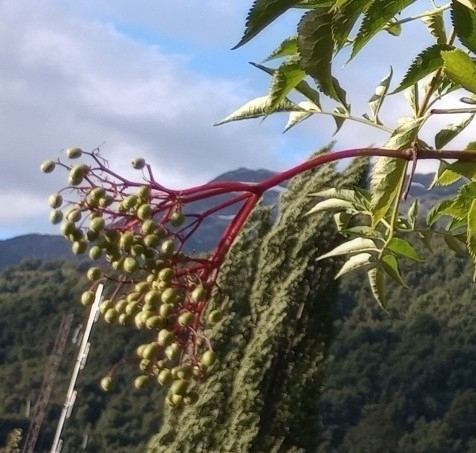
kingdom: Plantae
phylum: Tracheophyta
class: Magnoliopsida
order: Dipsacales
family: Viburnaceae
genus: Sambucus
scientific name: Sambucus nigra
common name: Elder
